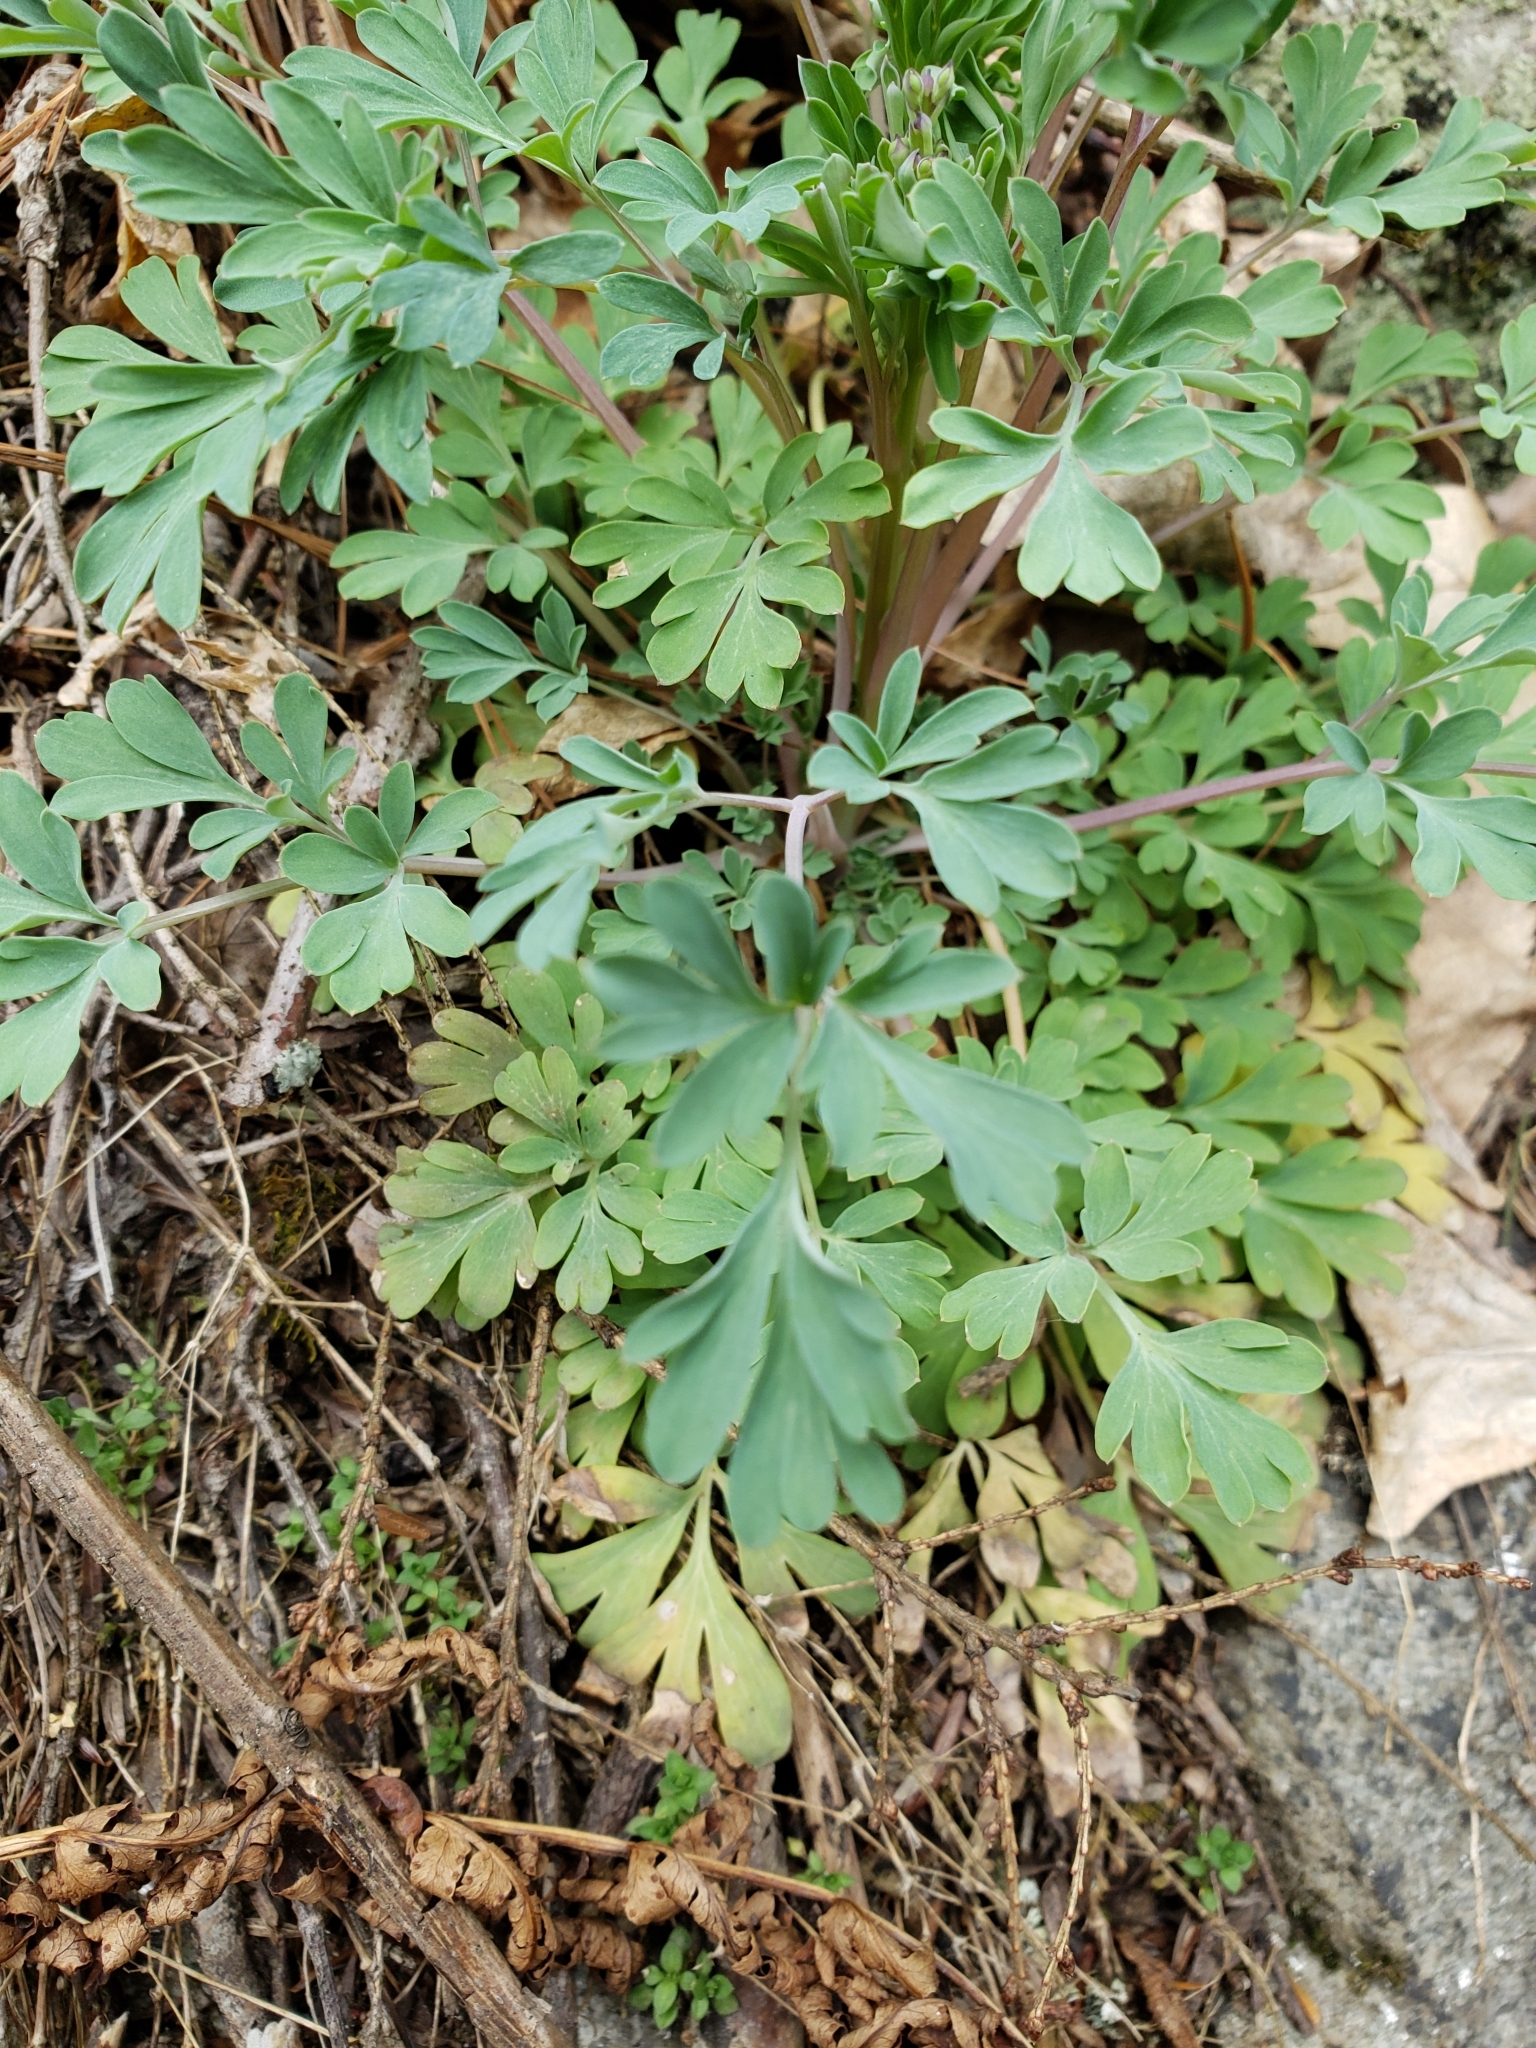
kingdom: Plantae
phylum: Tracheophyta
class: Magnoliopsida
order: Ranunculales
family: Papaveraceae
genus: Capnoides
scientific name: Capnoides sempervirens
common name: Rock harlequin
